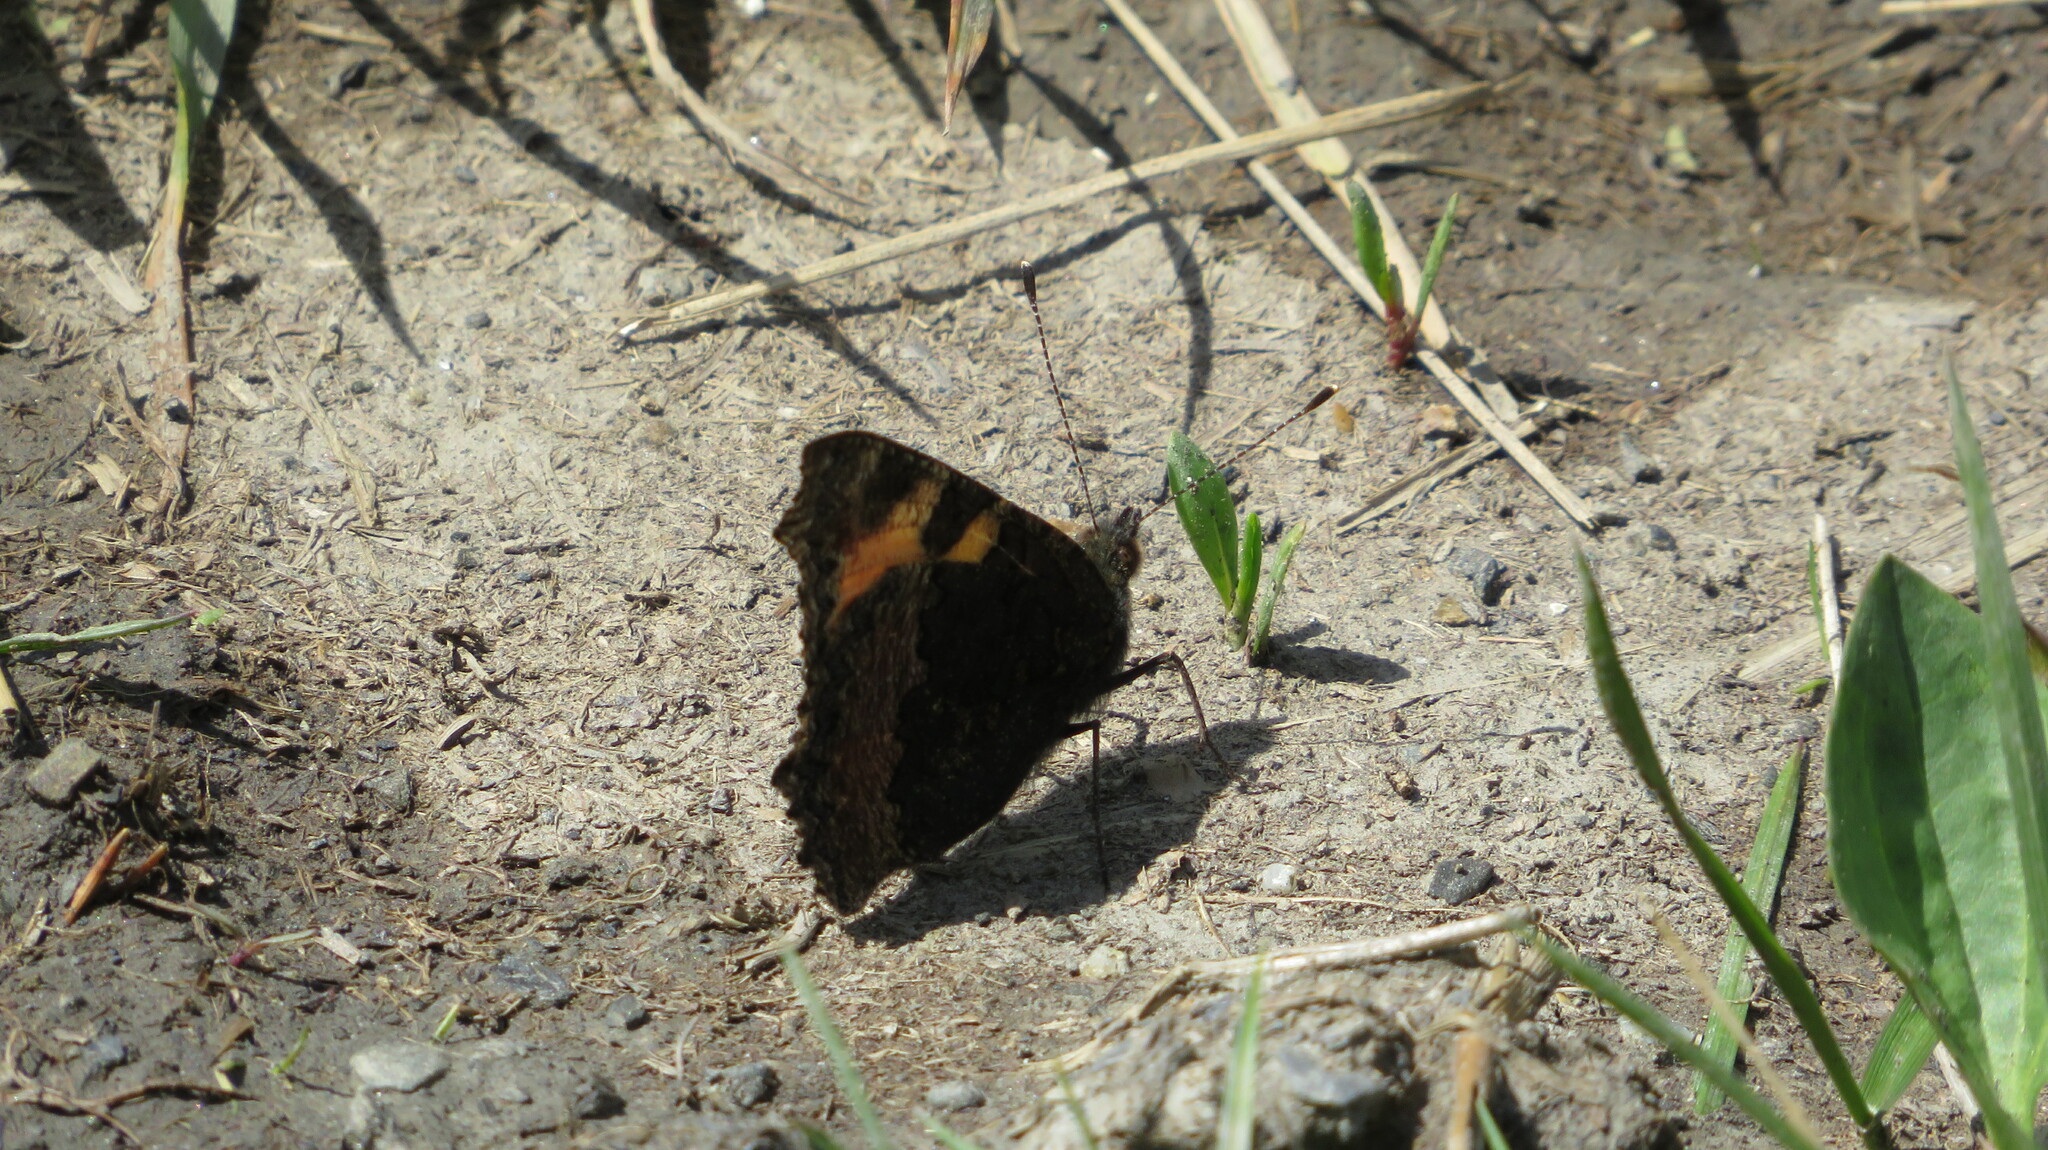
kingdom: Animalia
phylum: Arthropoda
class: Insecta
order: Lepidoptera
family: Nymphalidae
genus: Aglais
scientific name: Aglais urticae
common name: Small tortoiseshell
